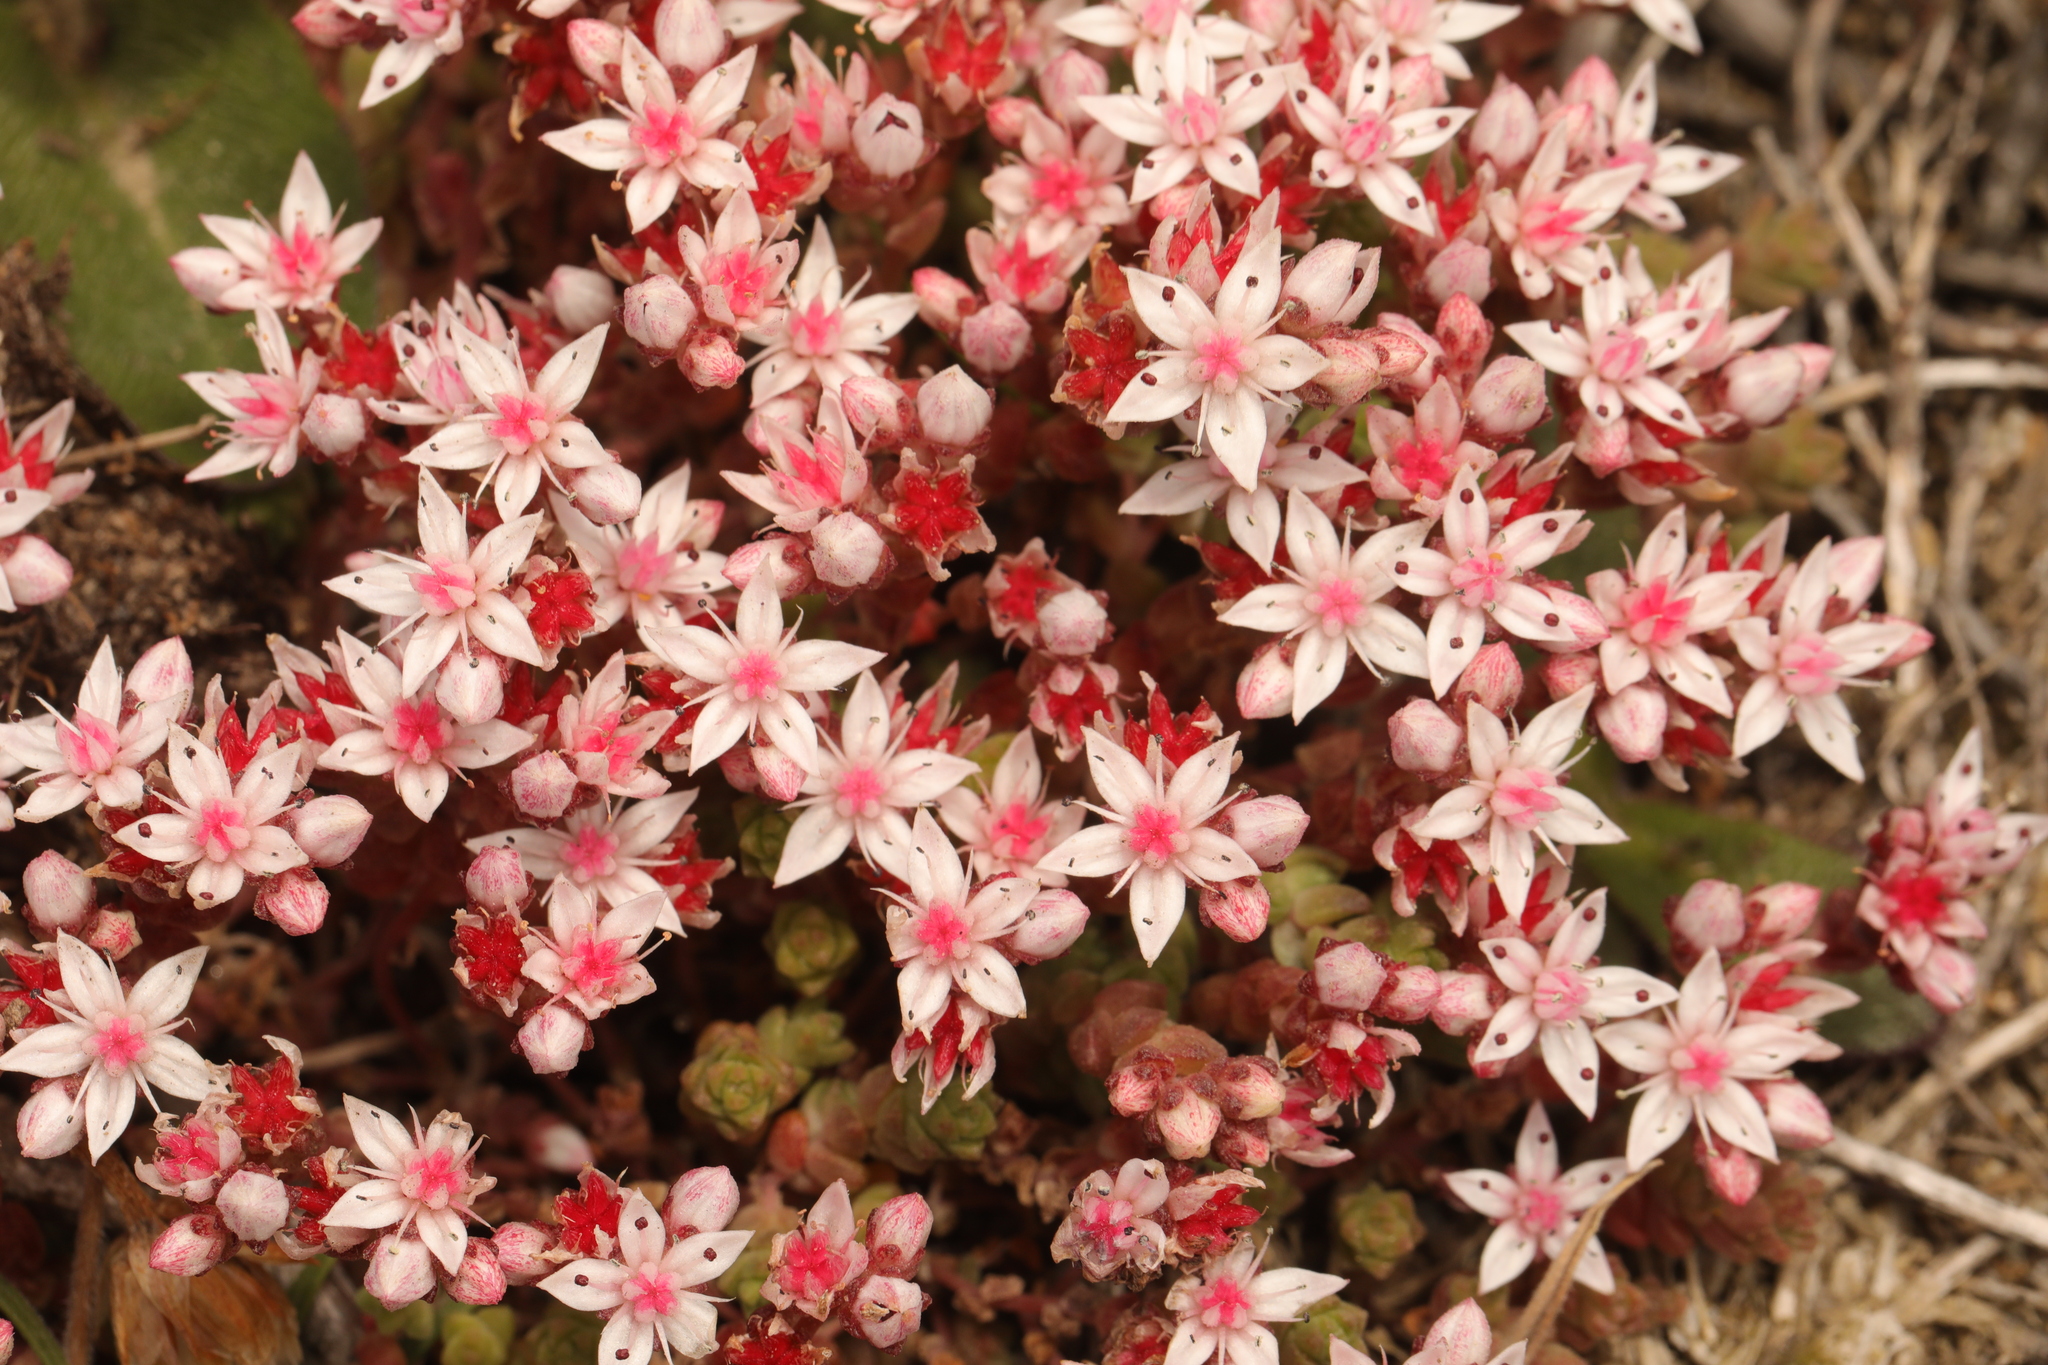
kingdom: Plantae
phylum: Tracheophyta
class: Magnoliopsida
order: Saxifragales
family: Crassulaceae
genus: Sedum
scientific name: Sedum anglicum
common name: English stonecrop
